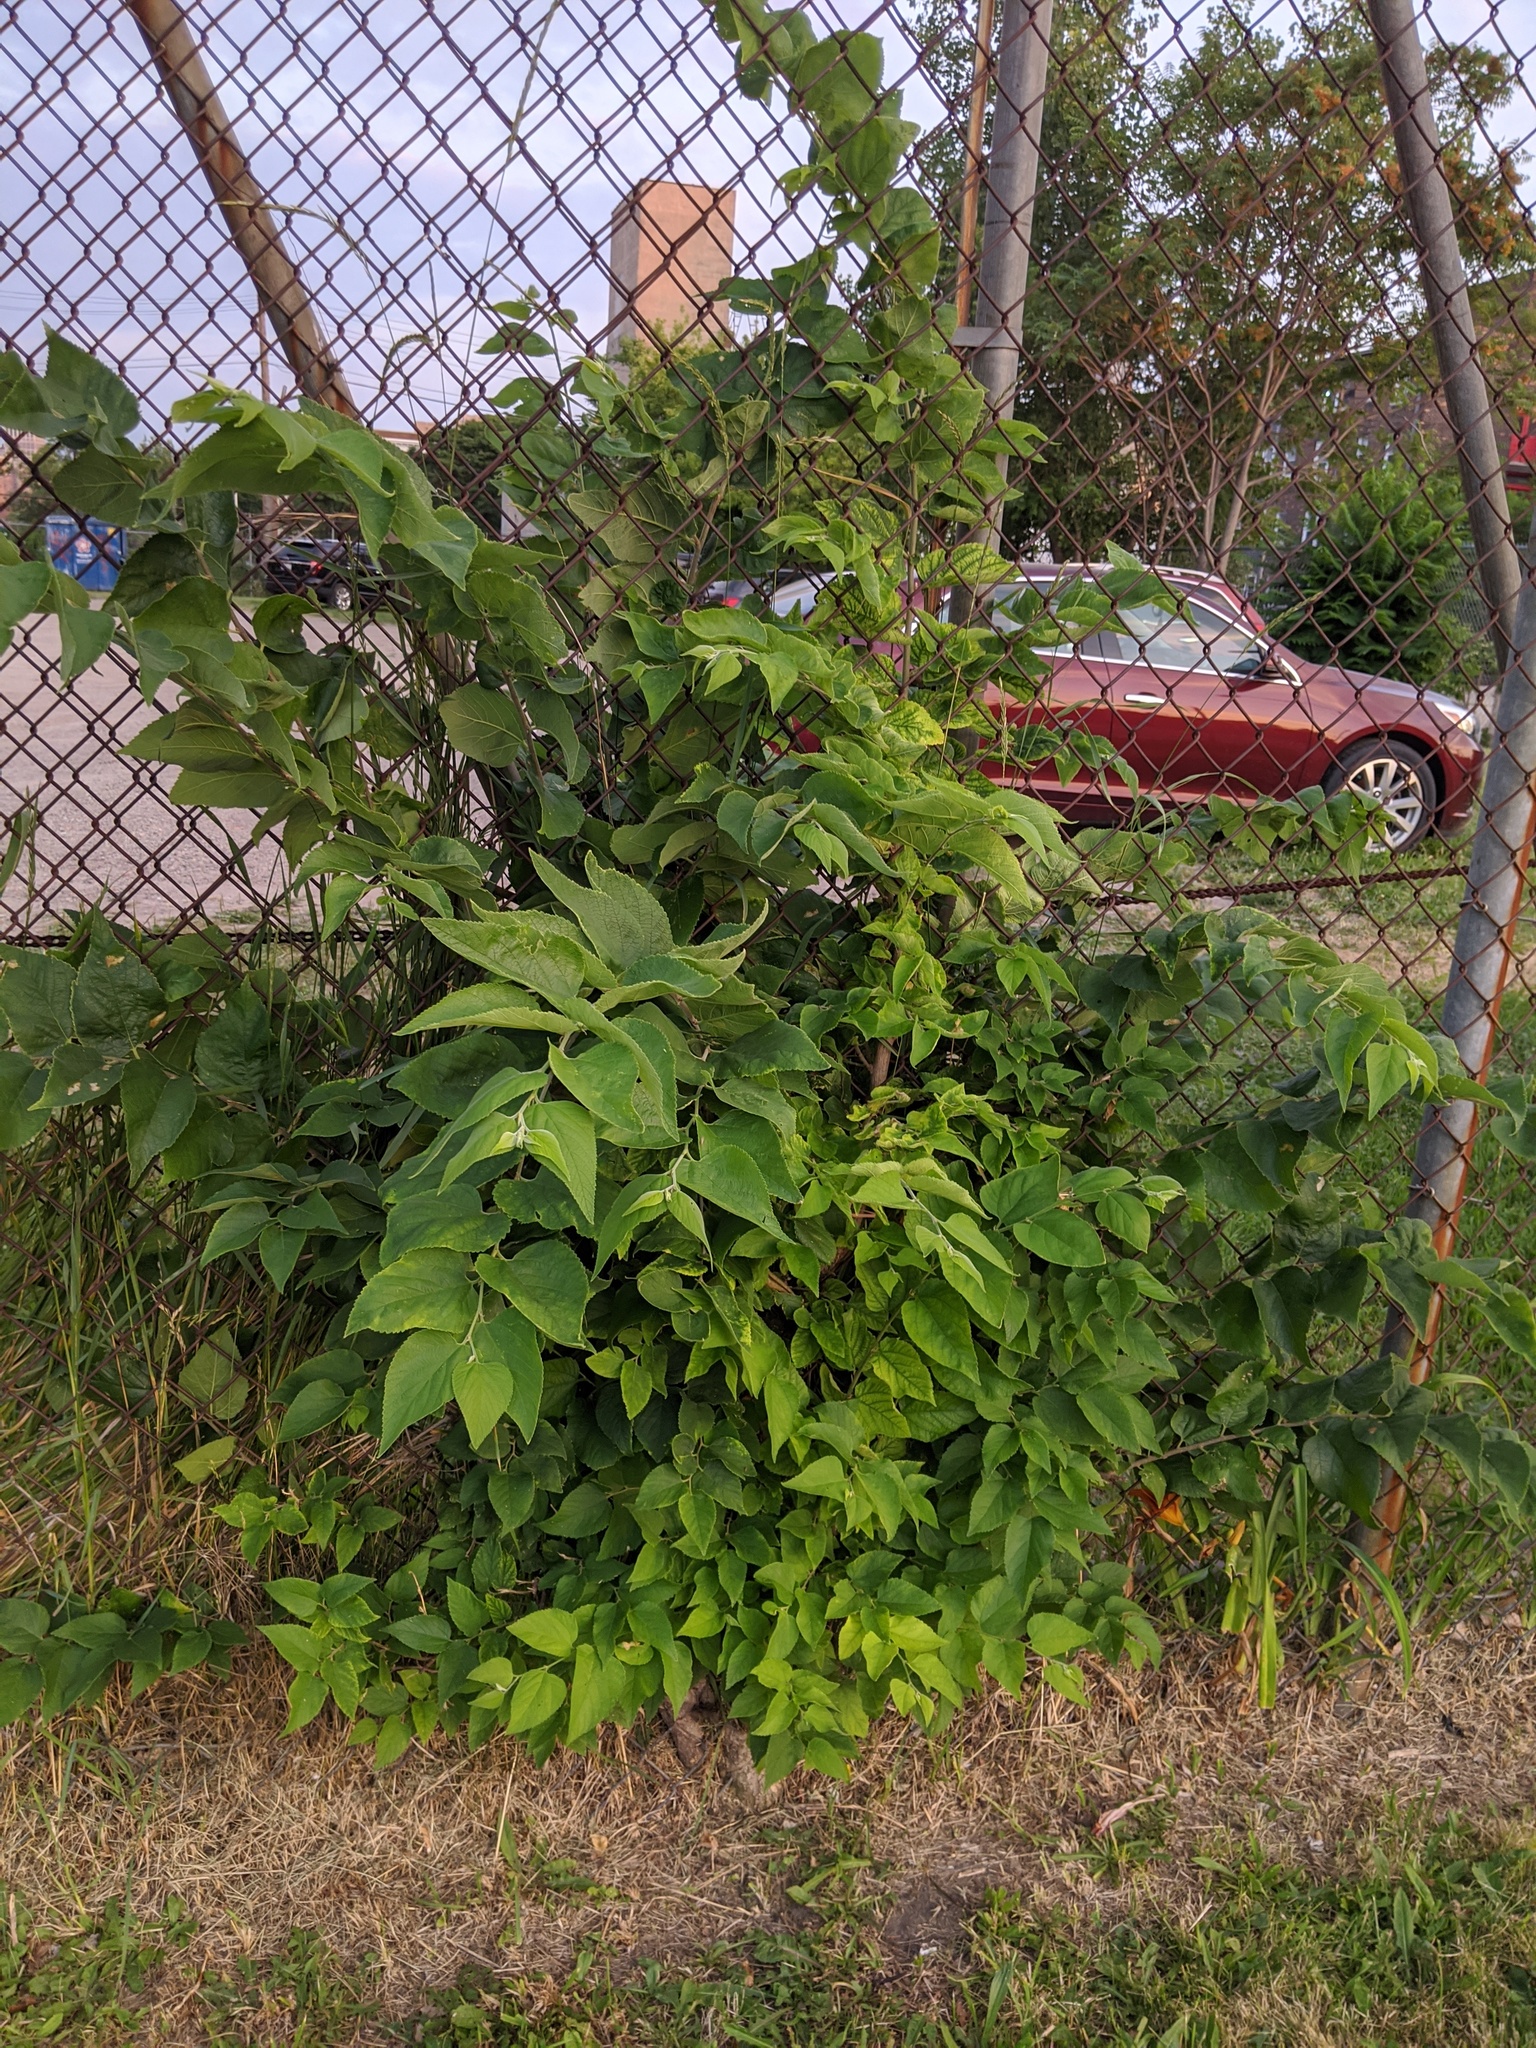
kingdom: Plantae
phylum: Tracheophyta
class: Magnoliopsida
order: Rosales
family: Cannabaceae
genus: Celtis
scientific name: Celtis occidentalis
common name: Common hackberry
